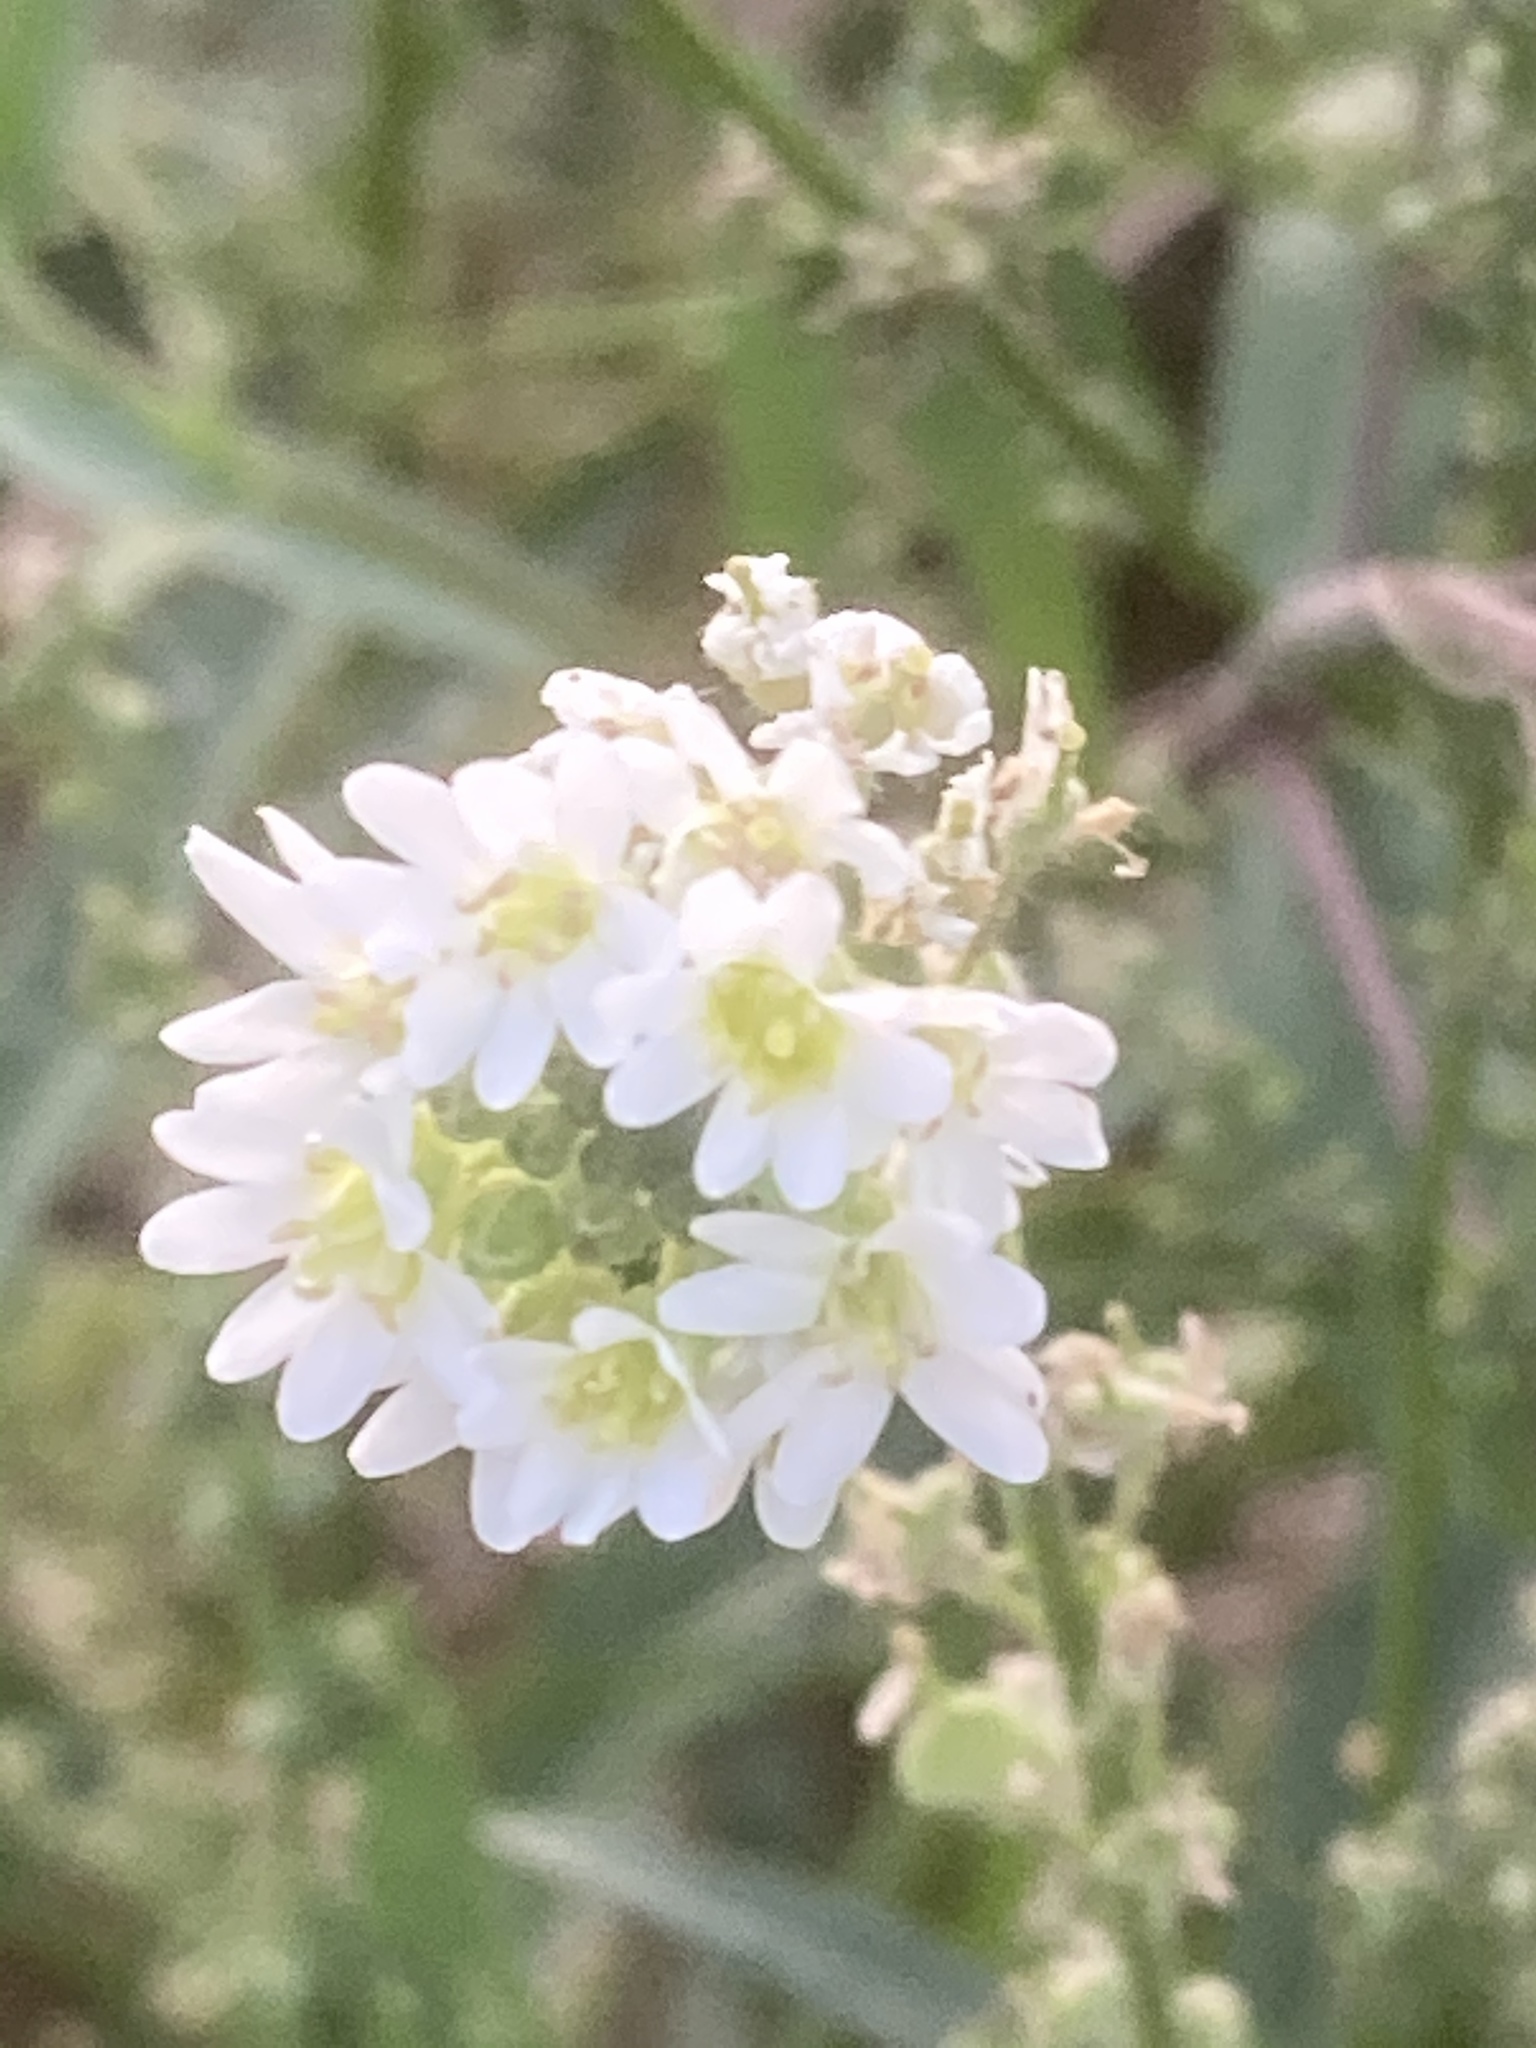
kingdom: Plantae
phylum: Tracheophyta
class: Magnoliopsida
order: Brassicales
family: Brassicaceae
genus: Berteroa
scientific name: Berteroa incana
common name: Hoary alison
